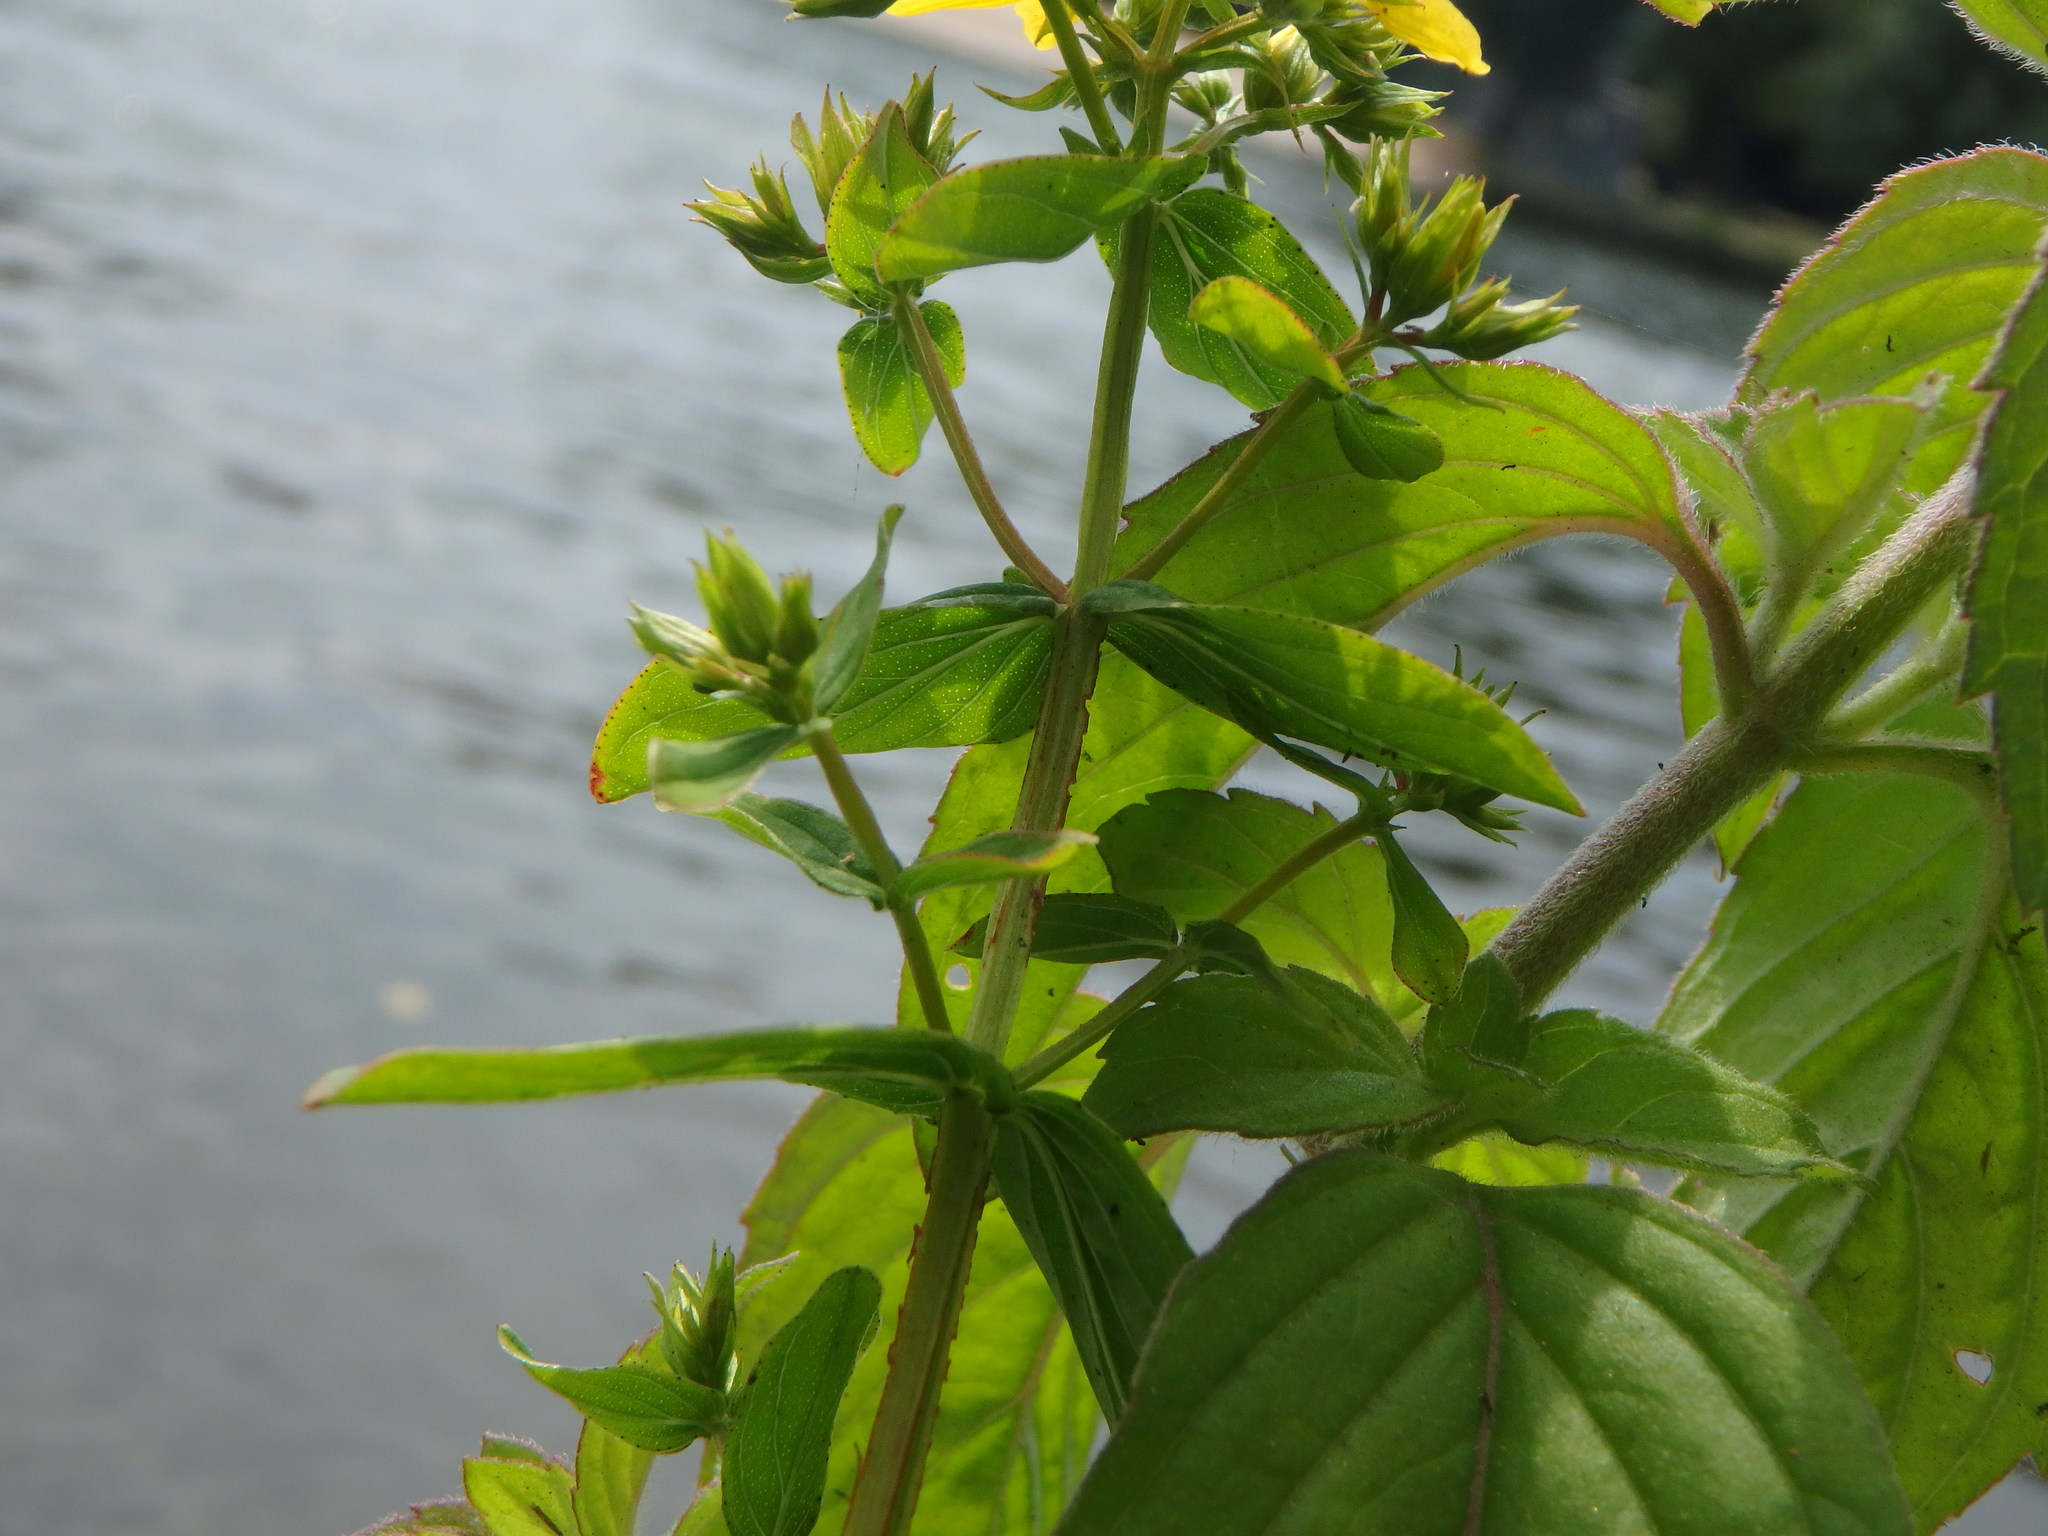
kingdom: Plantae
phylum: Tracheophyta
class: Magnoliopsida
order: Malpighiales
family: Hypericaceae
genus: Hypericum
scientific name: Hypericum tetrapterum
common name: Square-stalked st. john's-wort
